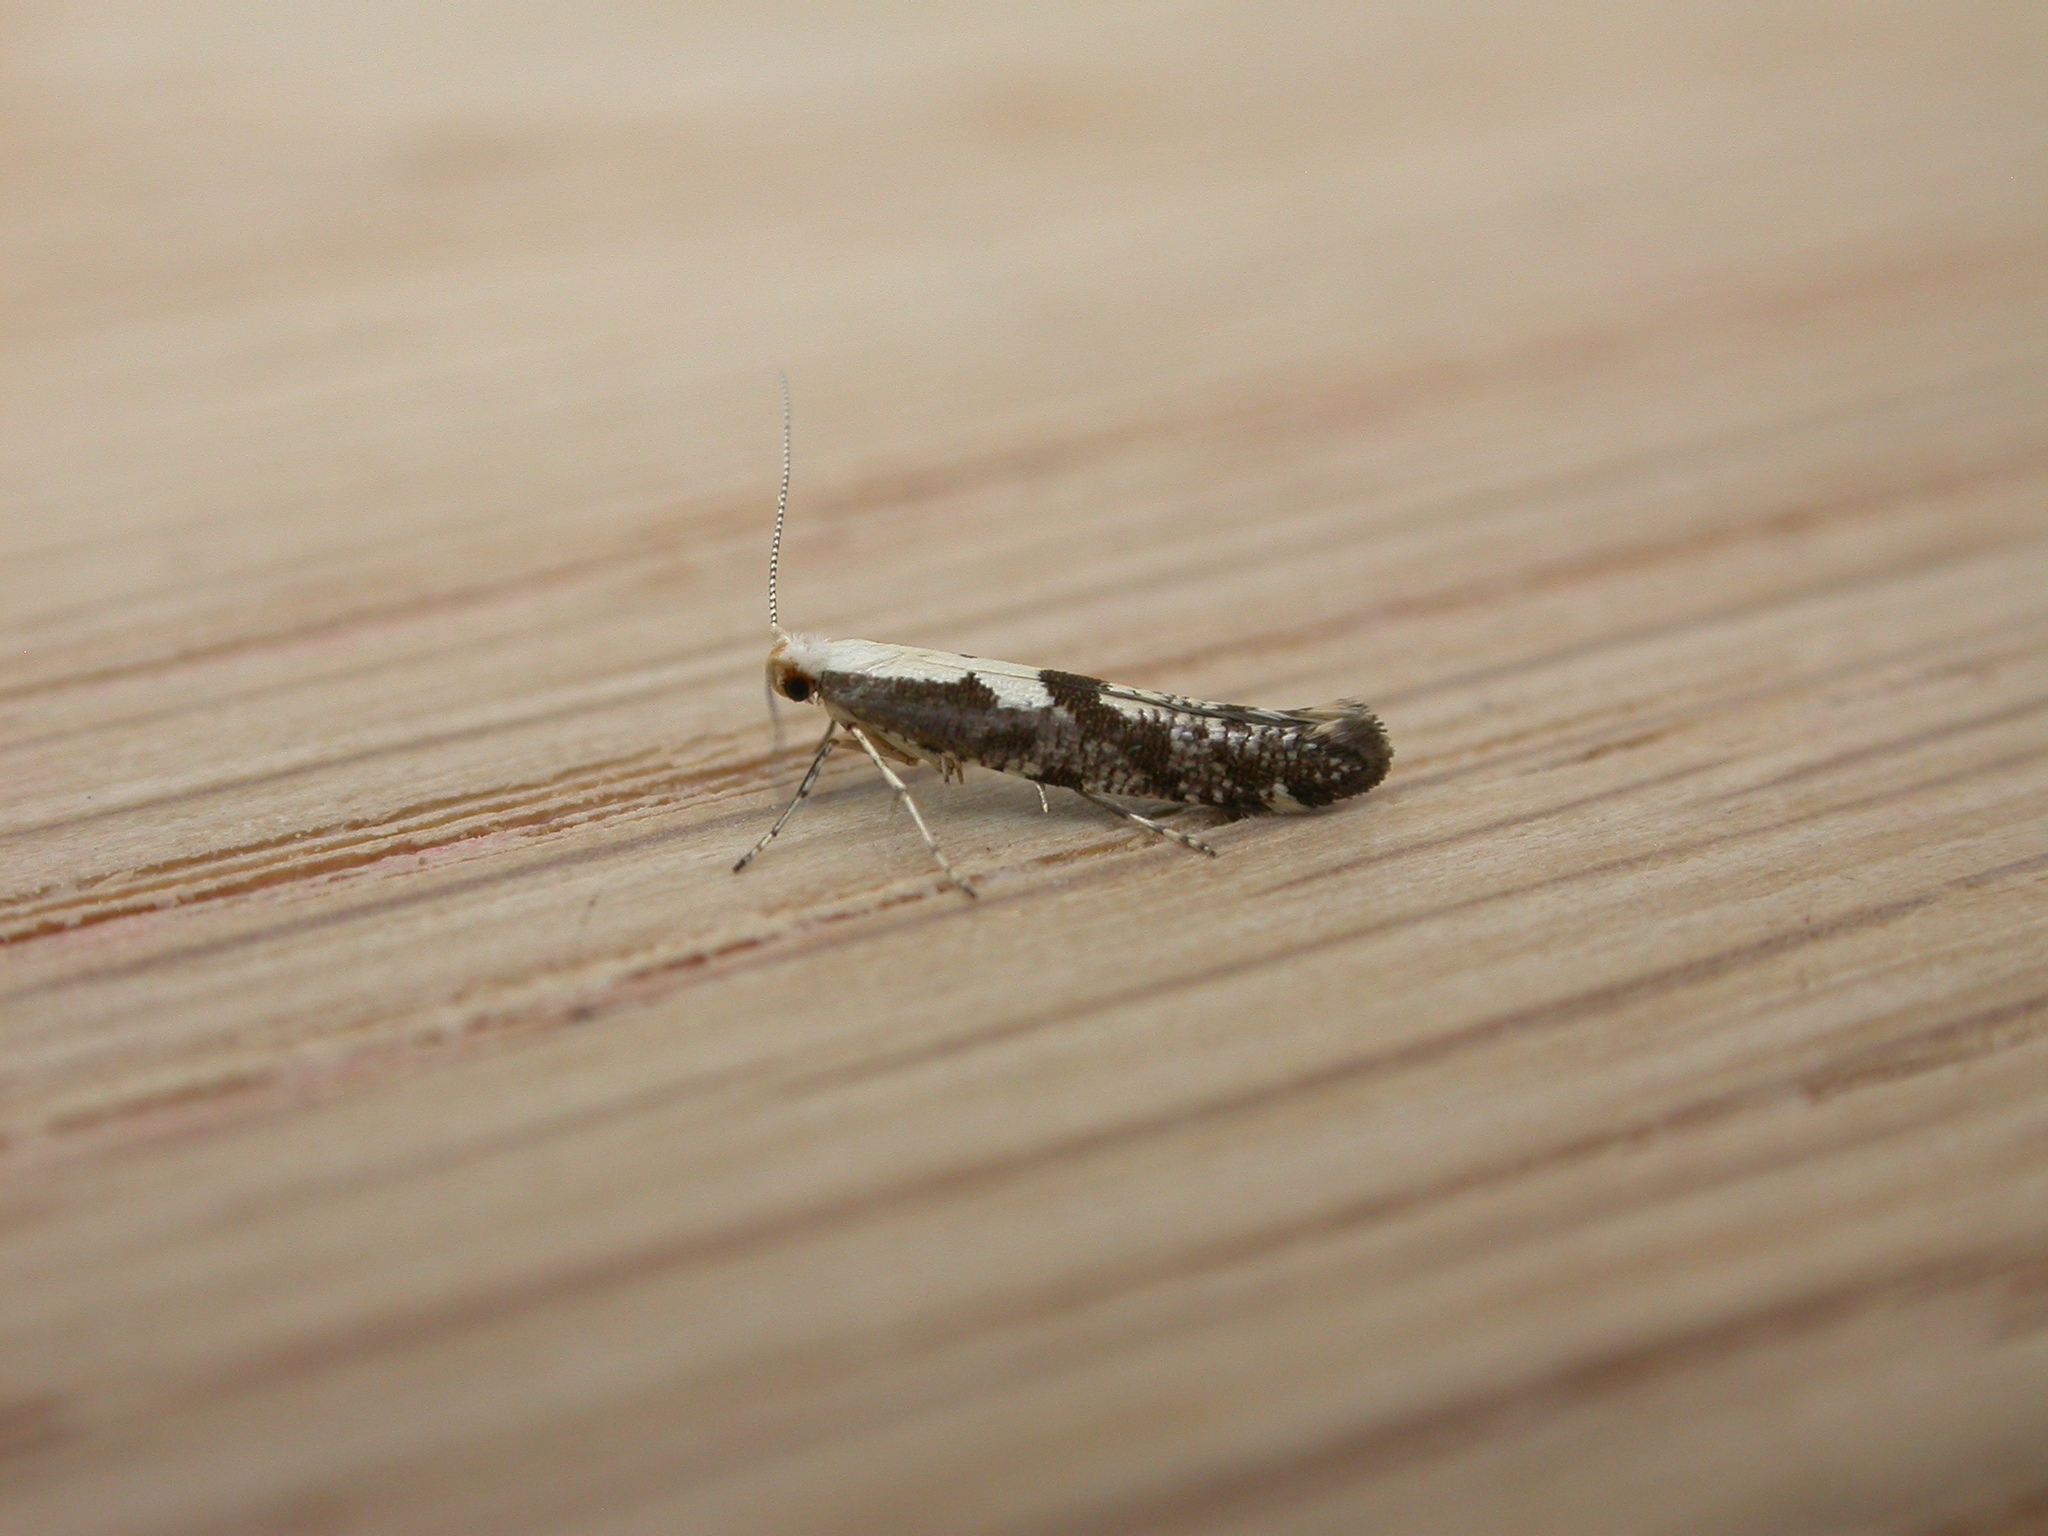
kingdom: Animalia
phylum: Arthropoda
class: Insecta
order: Lepidoptera
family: Argyresthiidae
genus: Argyresthia
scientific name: Argyresthia conjugella
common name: Apple fruit moth
